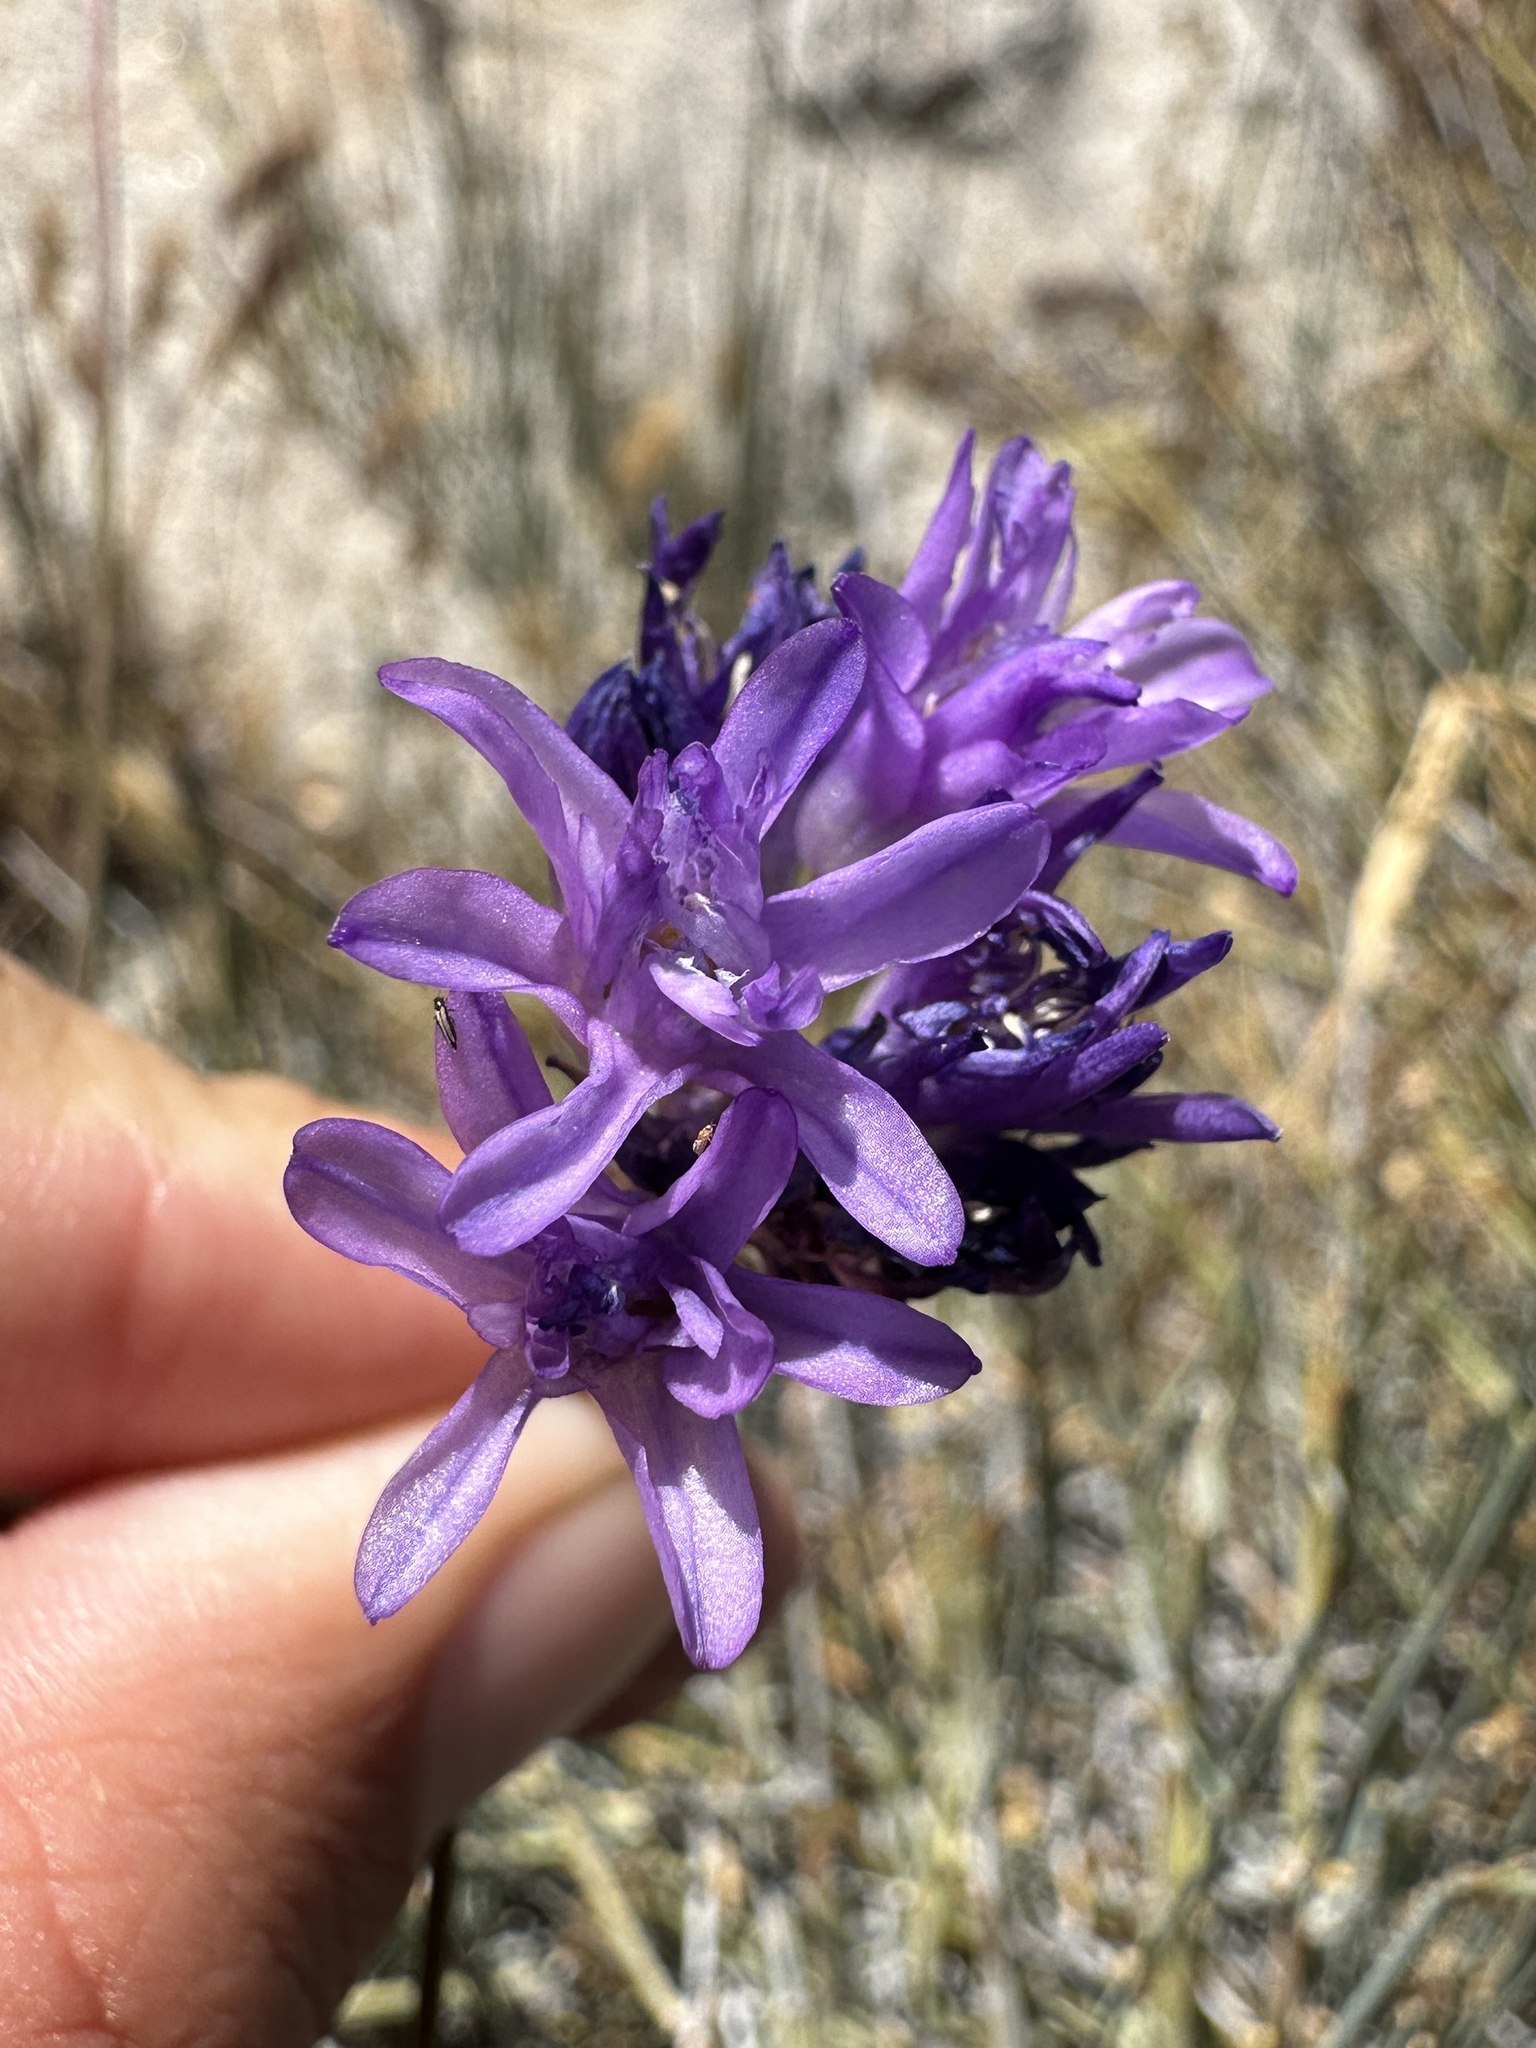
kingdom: Plantae
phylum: Tracheophyta
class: Liliopsida
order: Asparagales
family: Asparagaceae
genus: Dipterostemon
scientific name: Dipterostemon capitatus
